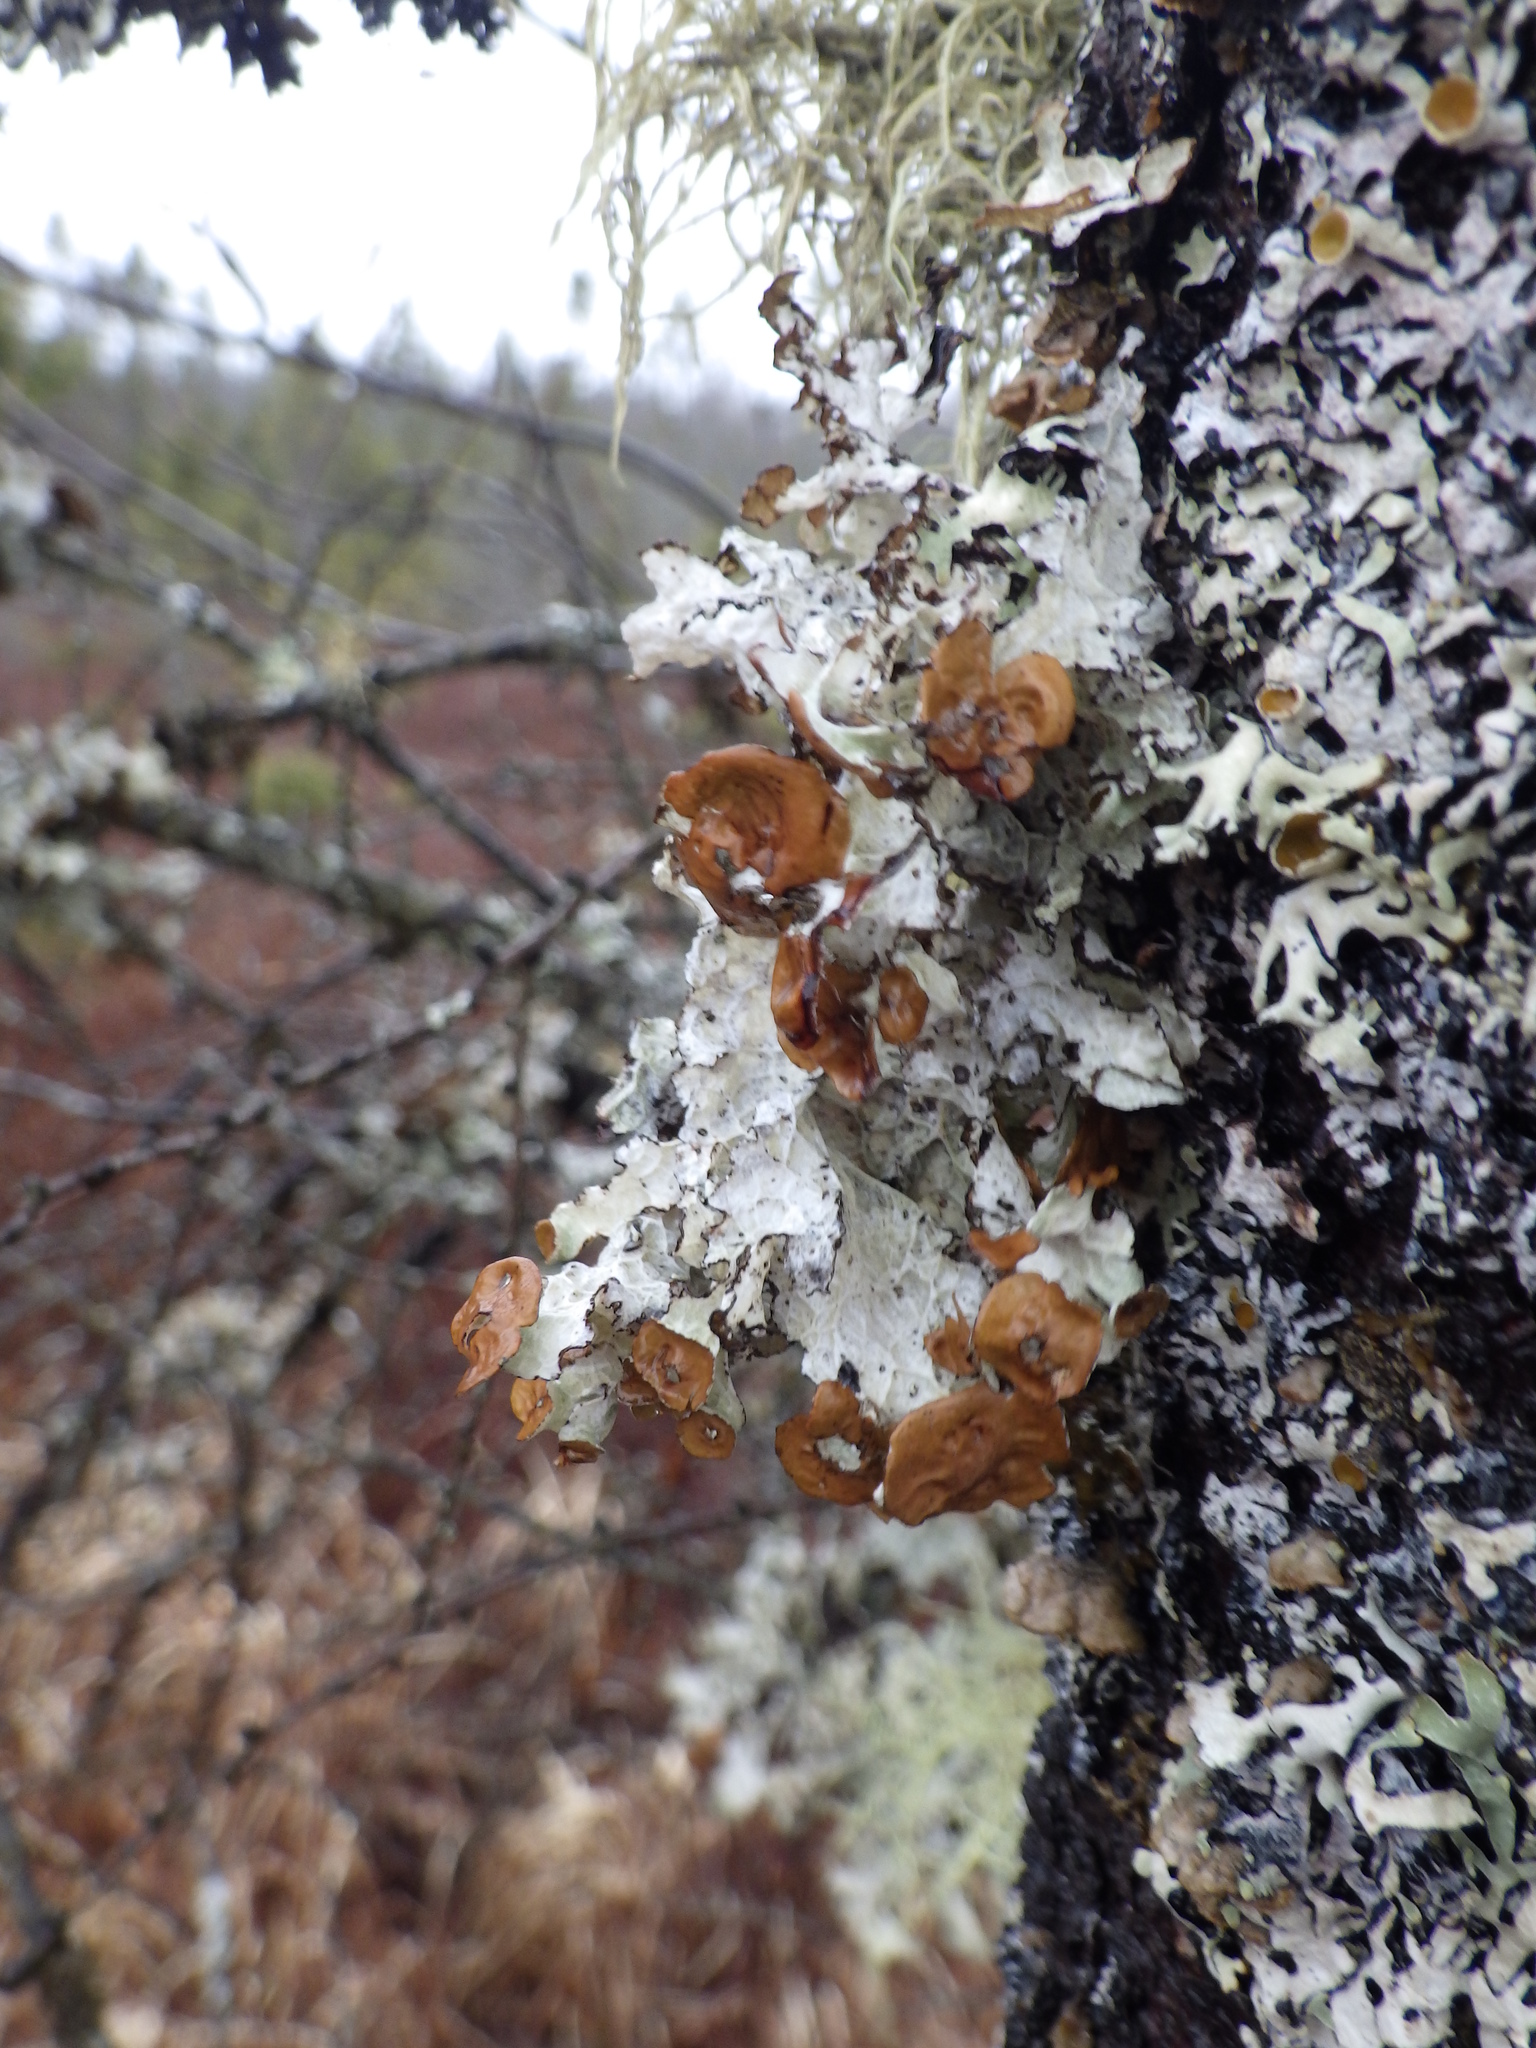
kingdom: Fungi
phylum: Ascomycota
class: Lecanoromycetes
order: Lecanorales
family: Parmeliaceae
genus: Platismatia
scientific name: Platismatia tuckermanii
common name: Crumpled rag lichen
